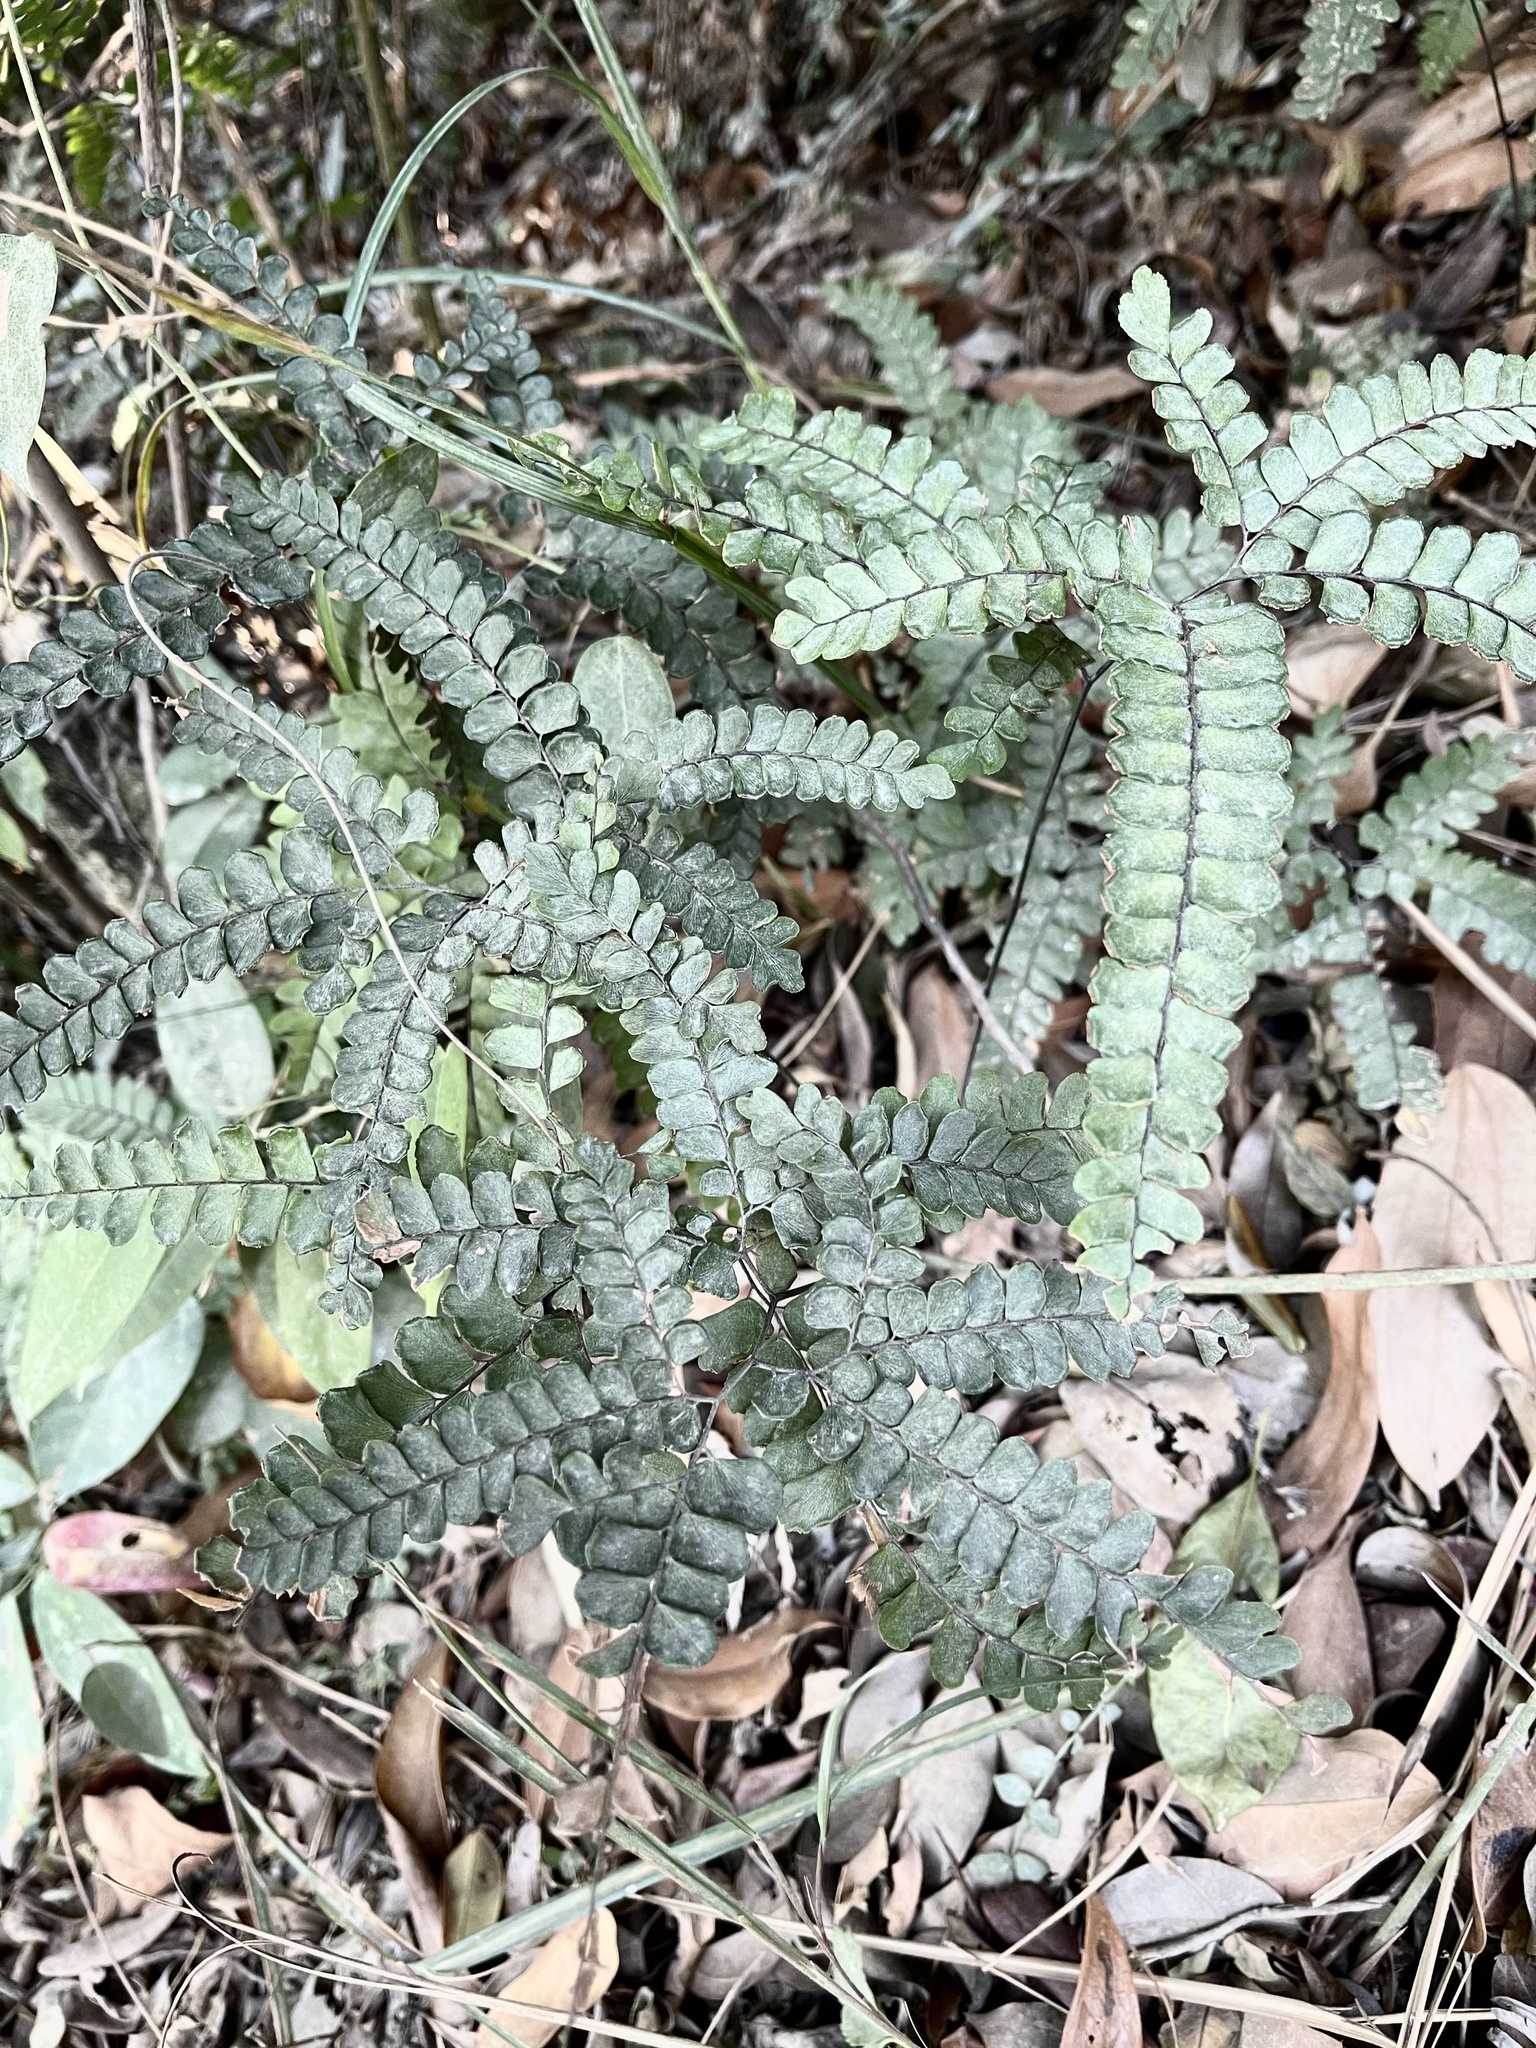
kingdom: Plantae
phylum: Tracheophyta
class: Polypodiopsida
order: Polypodiales
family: Pteridaceae
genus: Adiantum
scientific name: Adiantum flabellulatum
